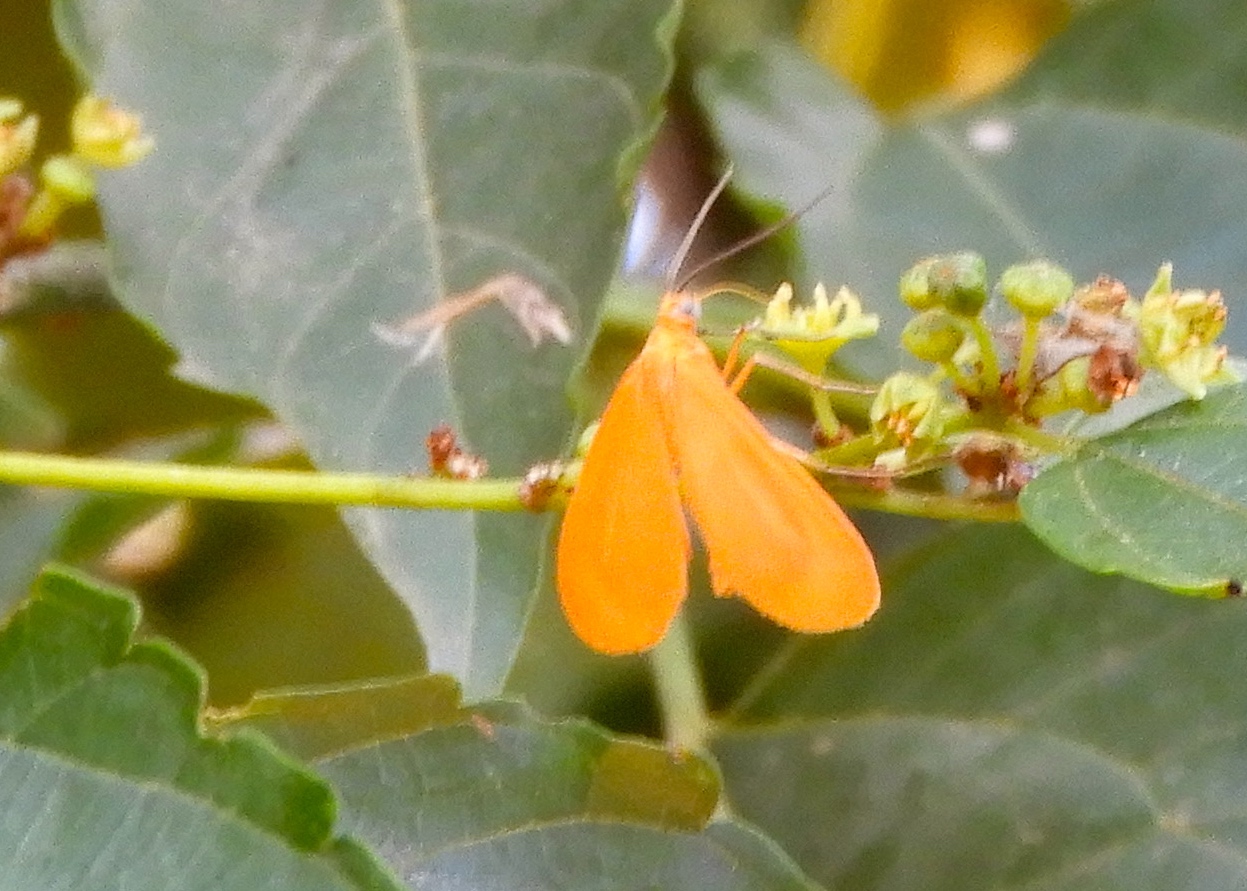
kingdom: Animalia
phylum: Arthropoda
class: Insecta
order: Lepidoptera
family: Geometridae
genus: Eubaphe
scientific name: Eubaphe unicolor
